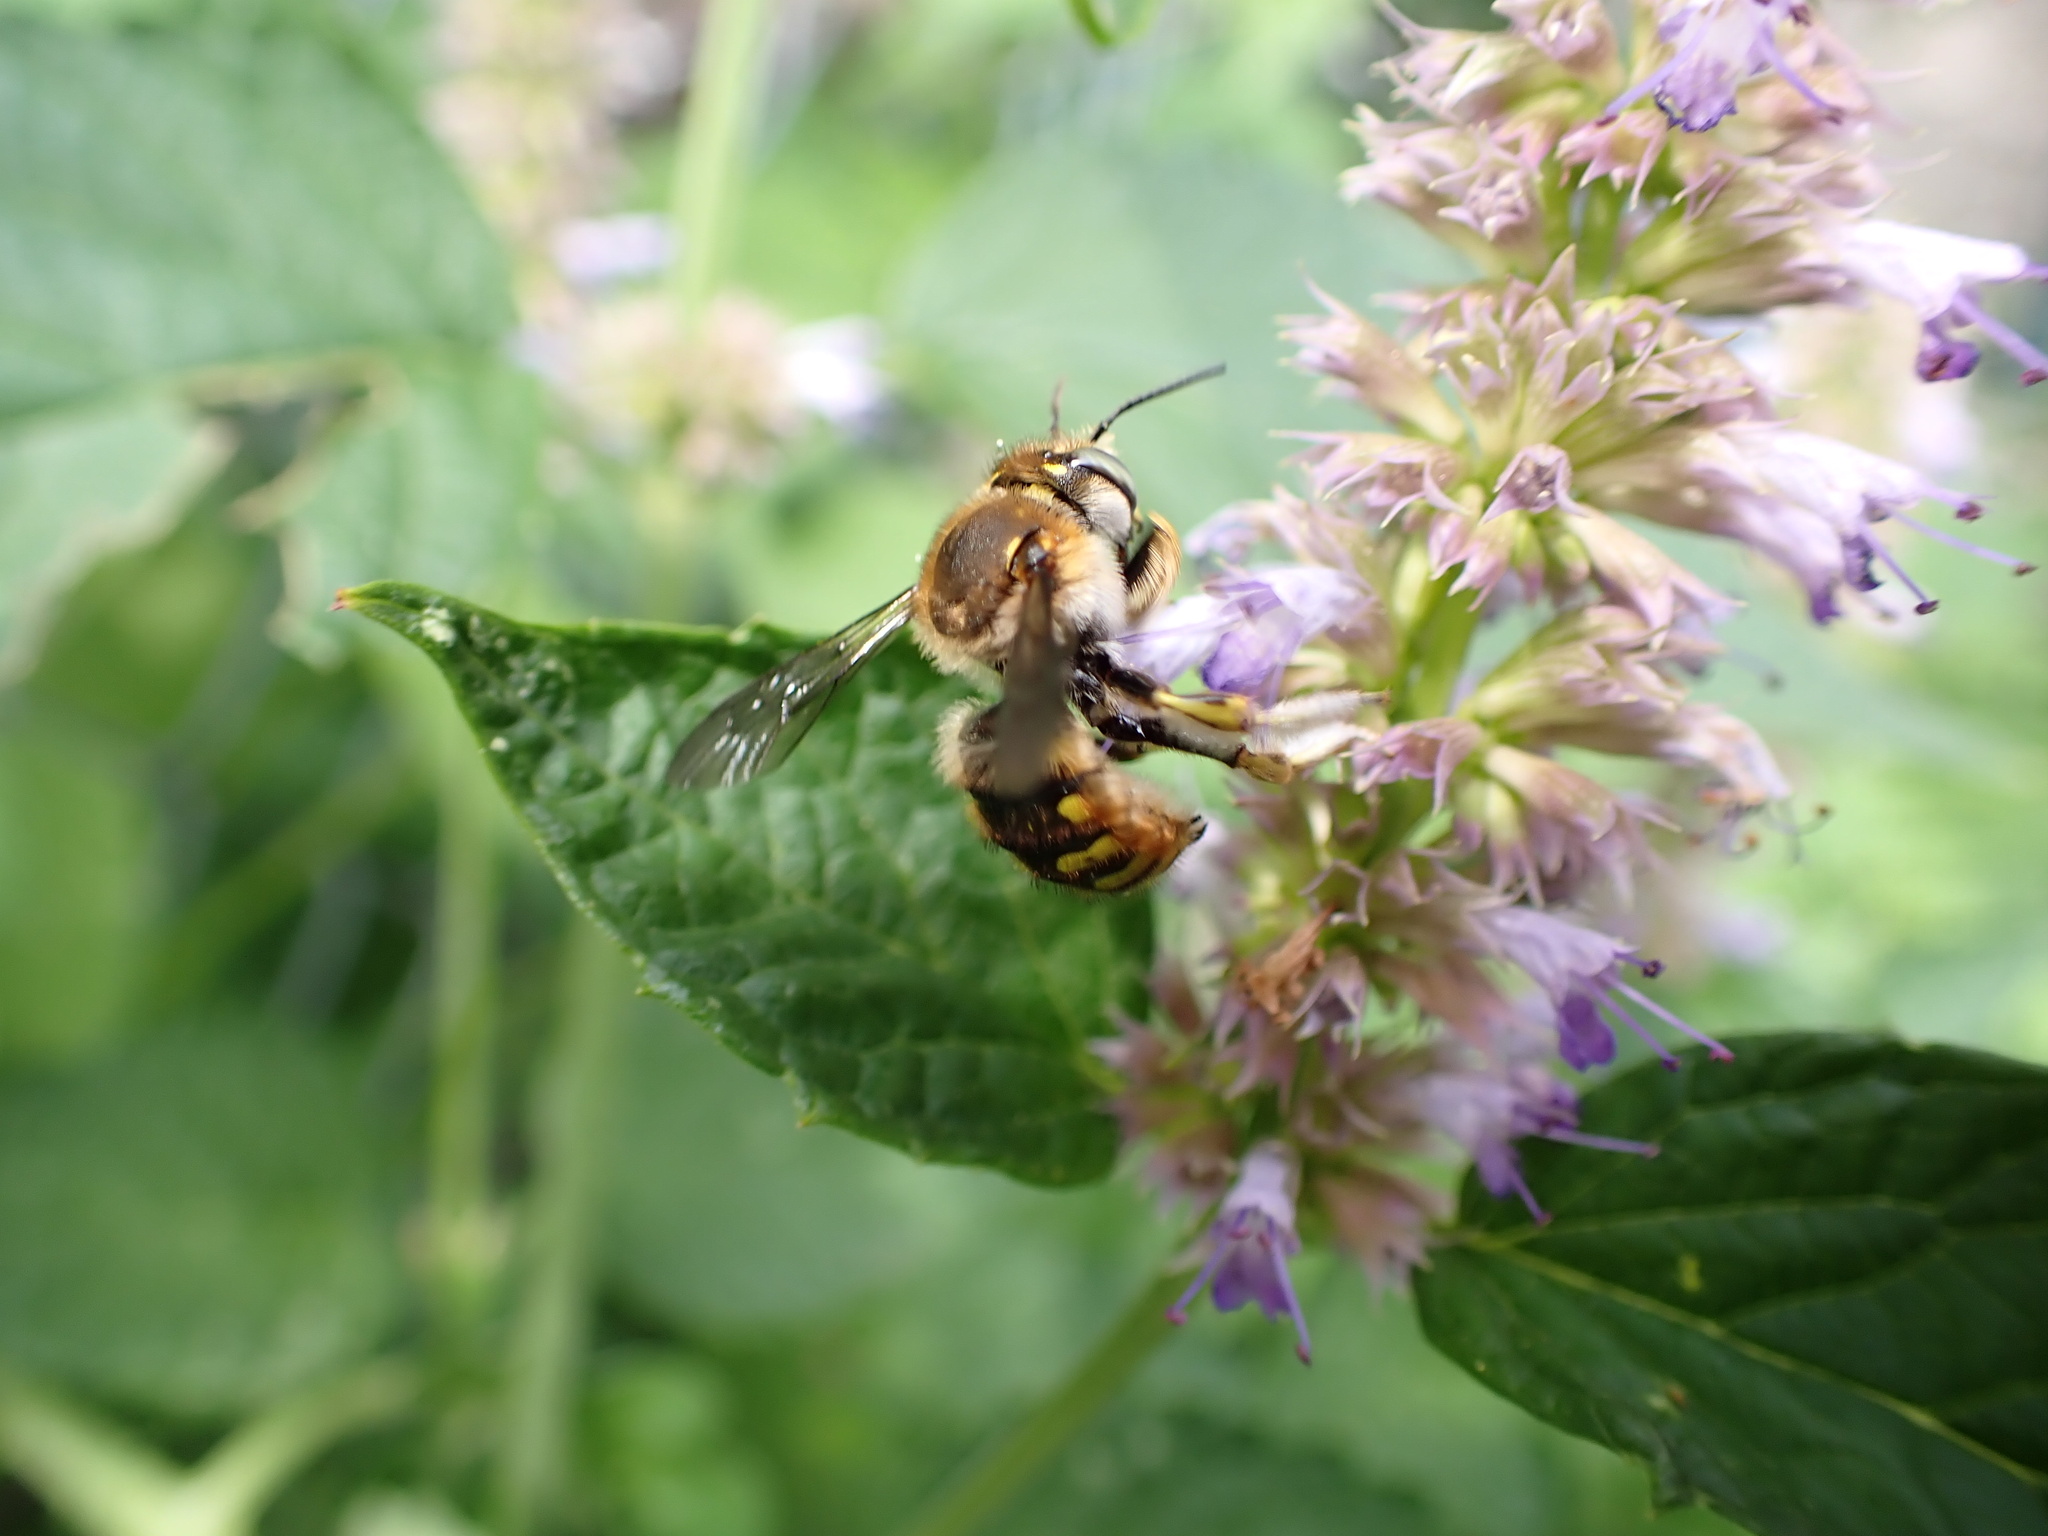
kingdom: Animalia
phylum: Arthropoda
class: Insecta
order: Hymenoptera
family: Megachilidae
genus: Anthidium
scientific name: Anthidium manicatum
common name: Wool carder bee
